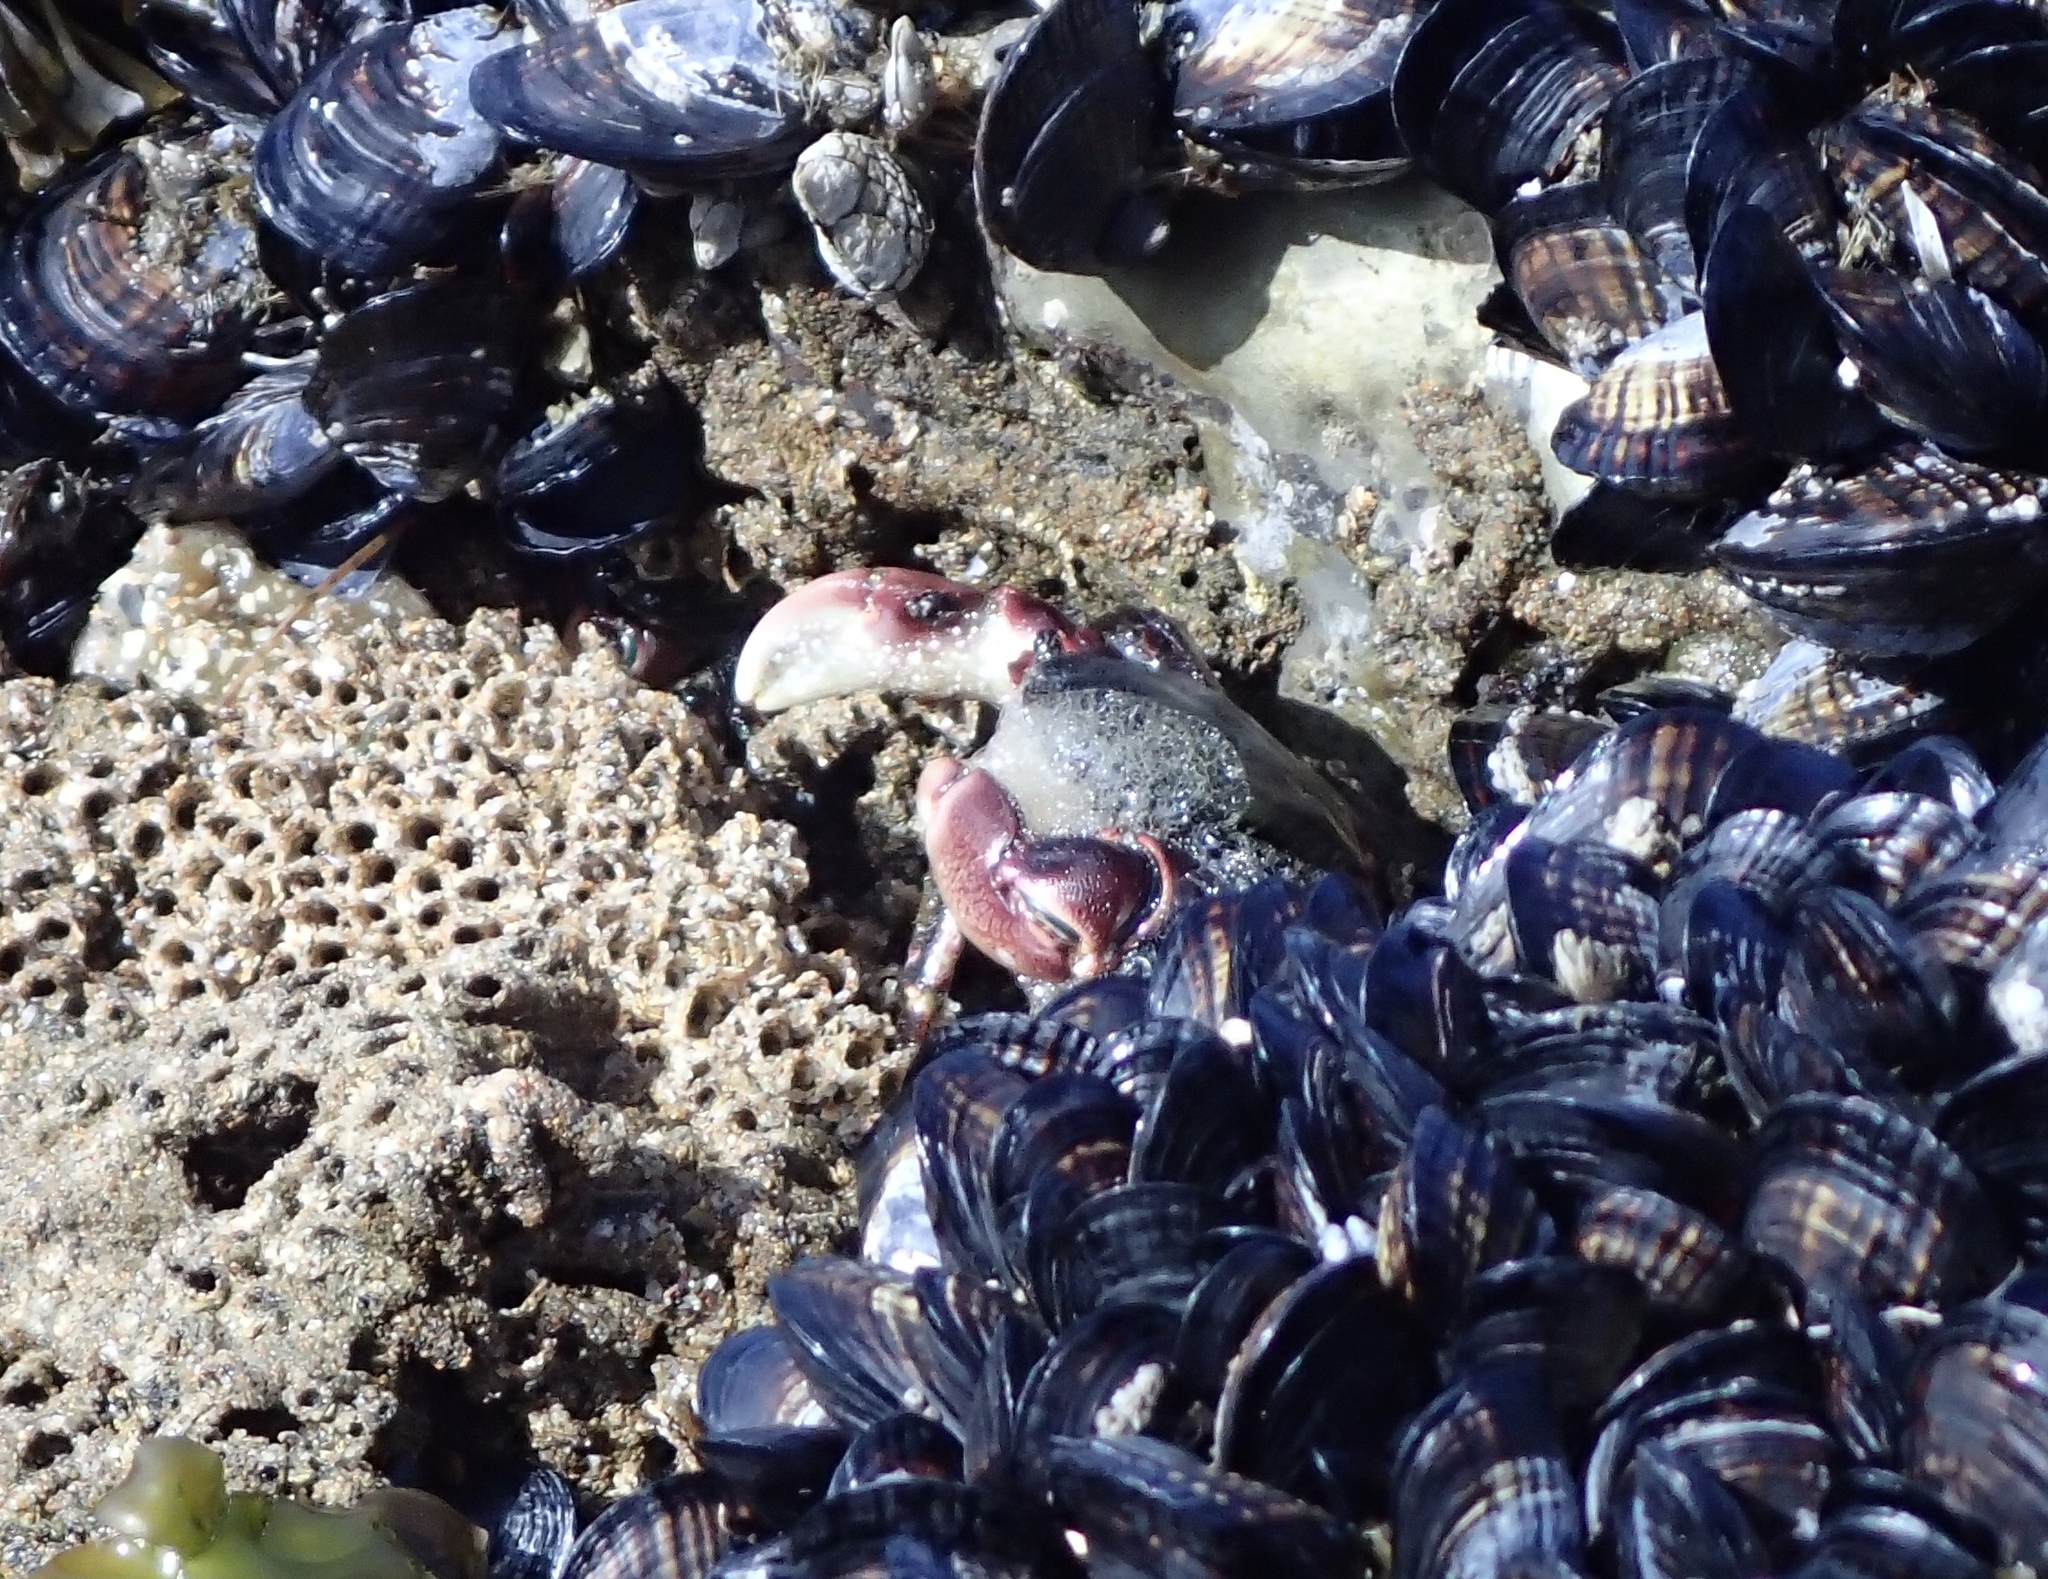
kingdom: Animalia
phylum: Arthropoda
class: Malacostraca
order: Decapoda
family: Grapsidae
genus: Pachygrapsus
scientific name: Pachygrapsus crassipes
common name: Striped shore crab
